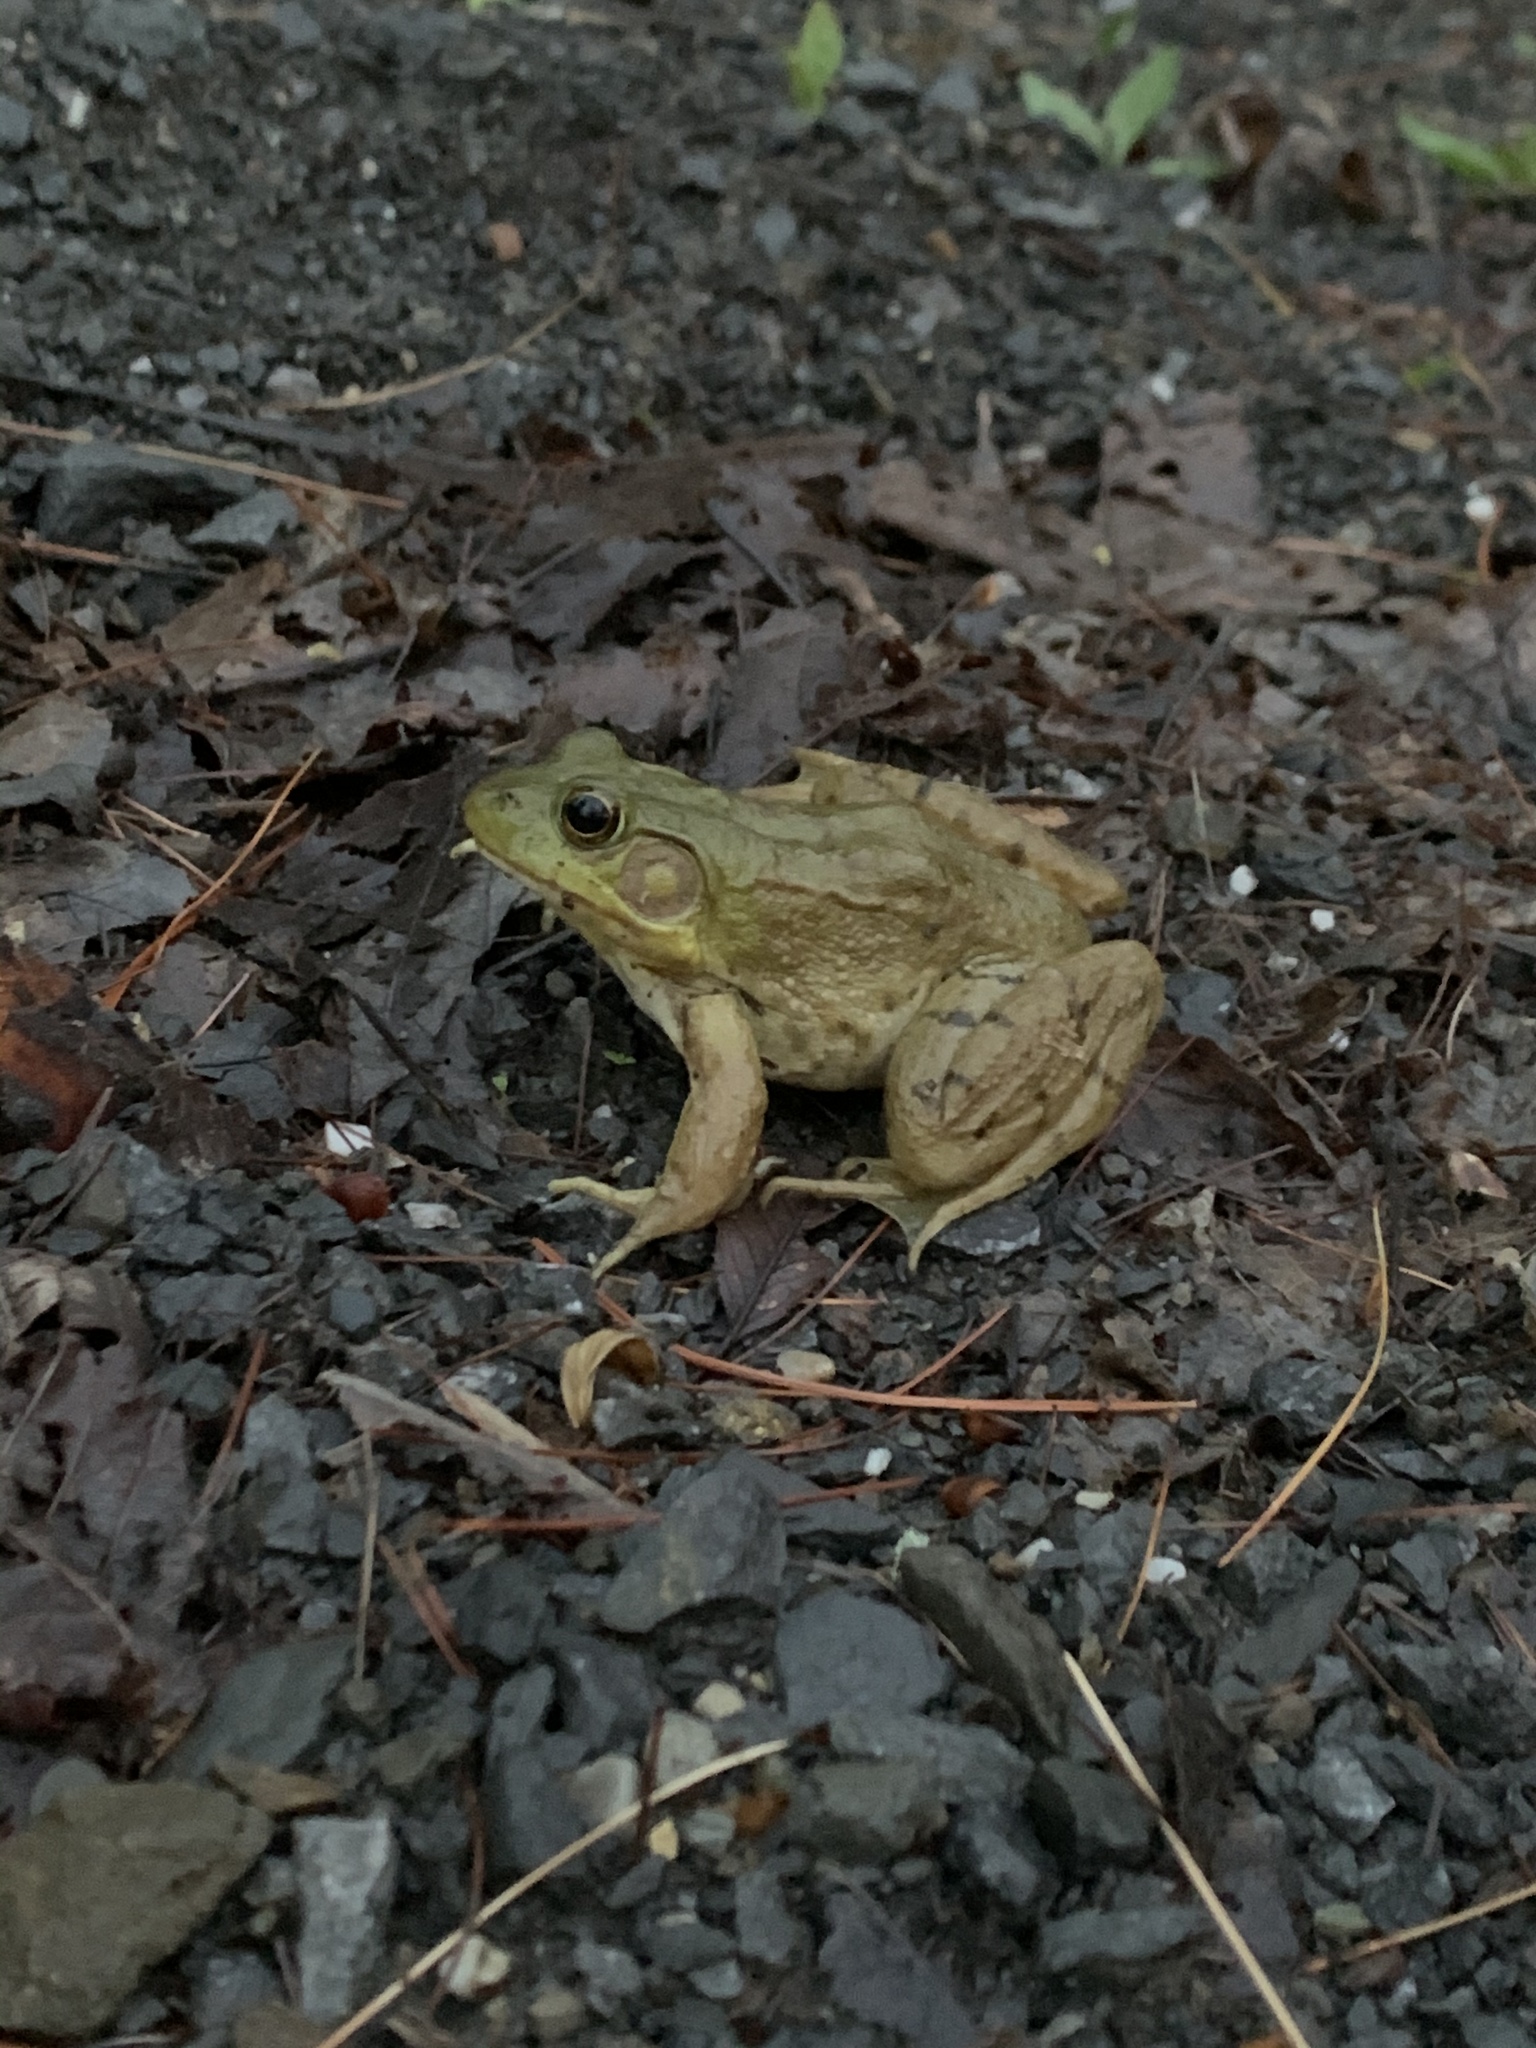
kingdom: Animalia
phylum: Chordata
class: Amphibia
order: Anura
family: Ranidae
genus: Lithobates
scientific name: Lithobates clamitans
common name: Green frog
